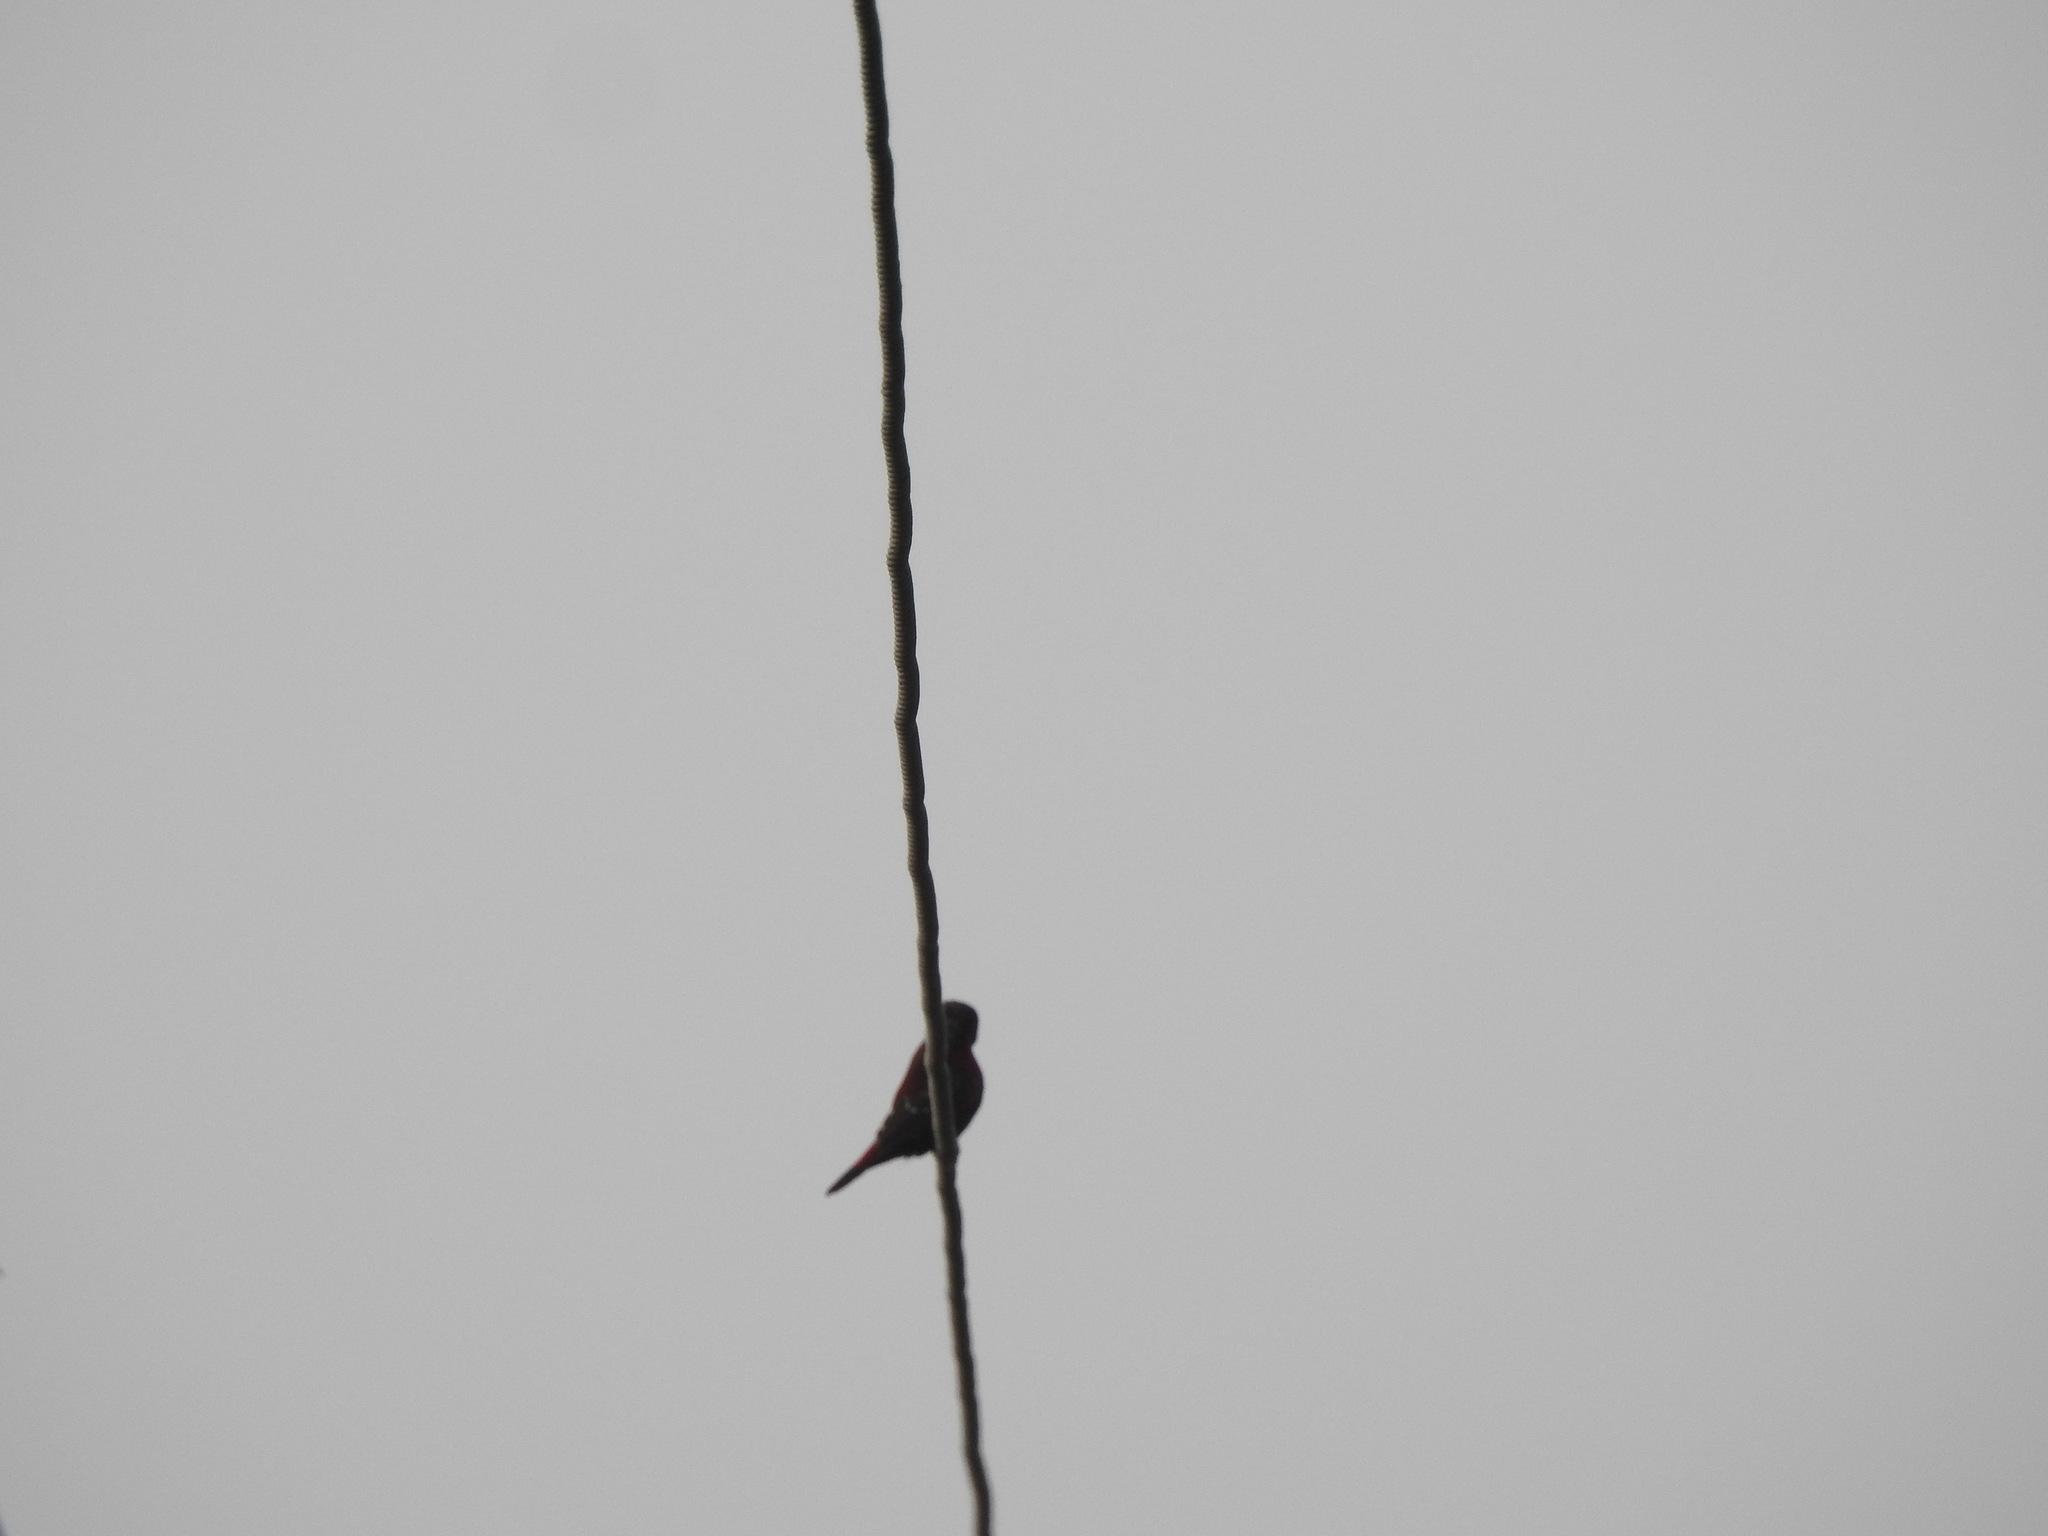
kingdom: Animalia
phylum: Chordata
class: Aves
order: Passeriformes
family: Estrildidae
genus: Amandava
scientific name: Amandava amandava
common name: Red avadavat
